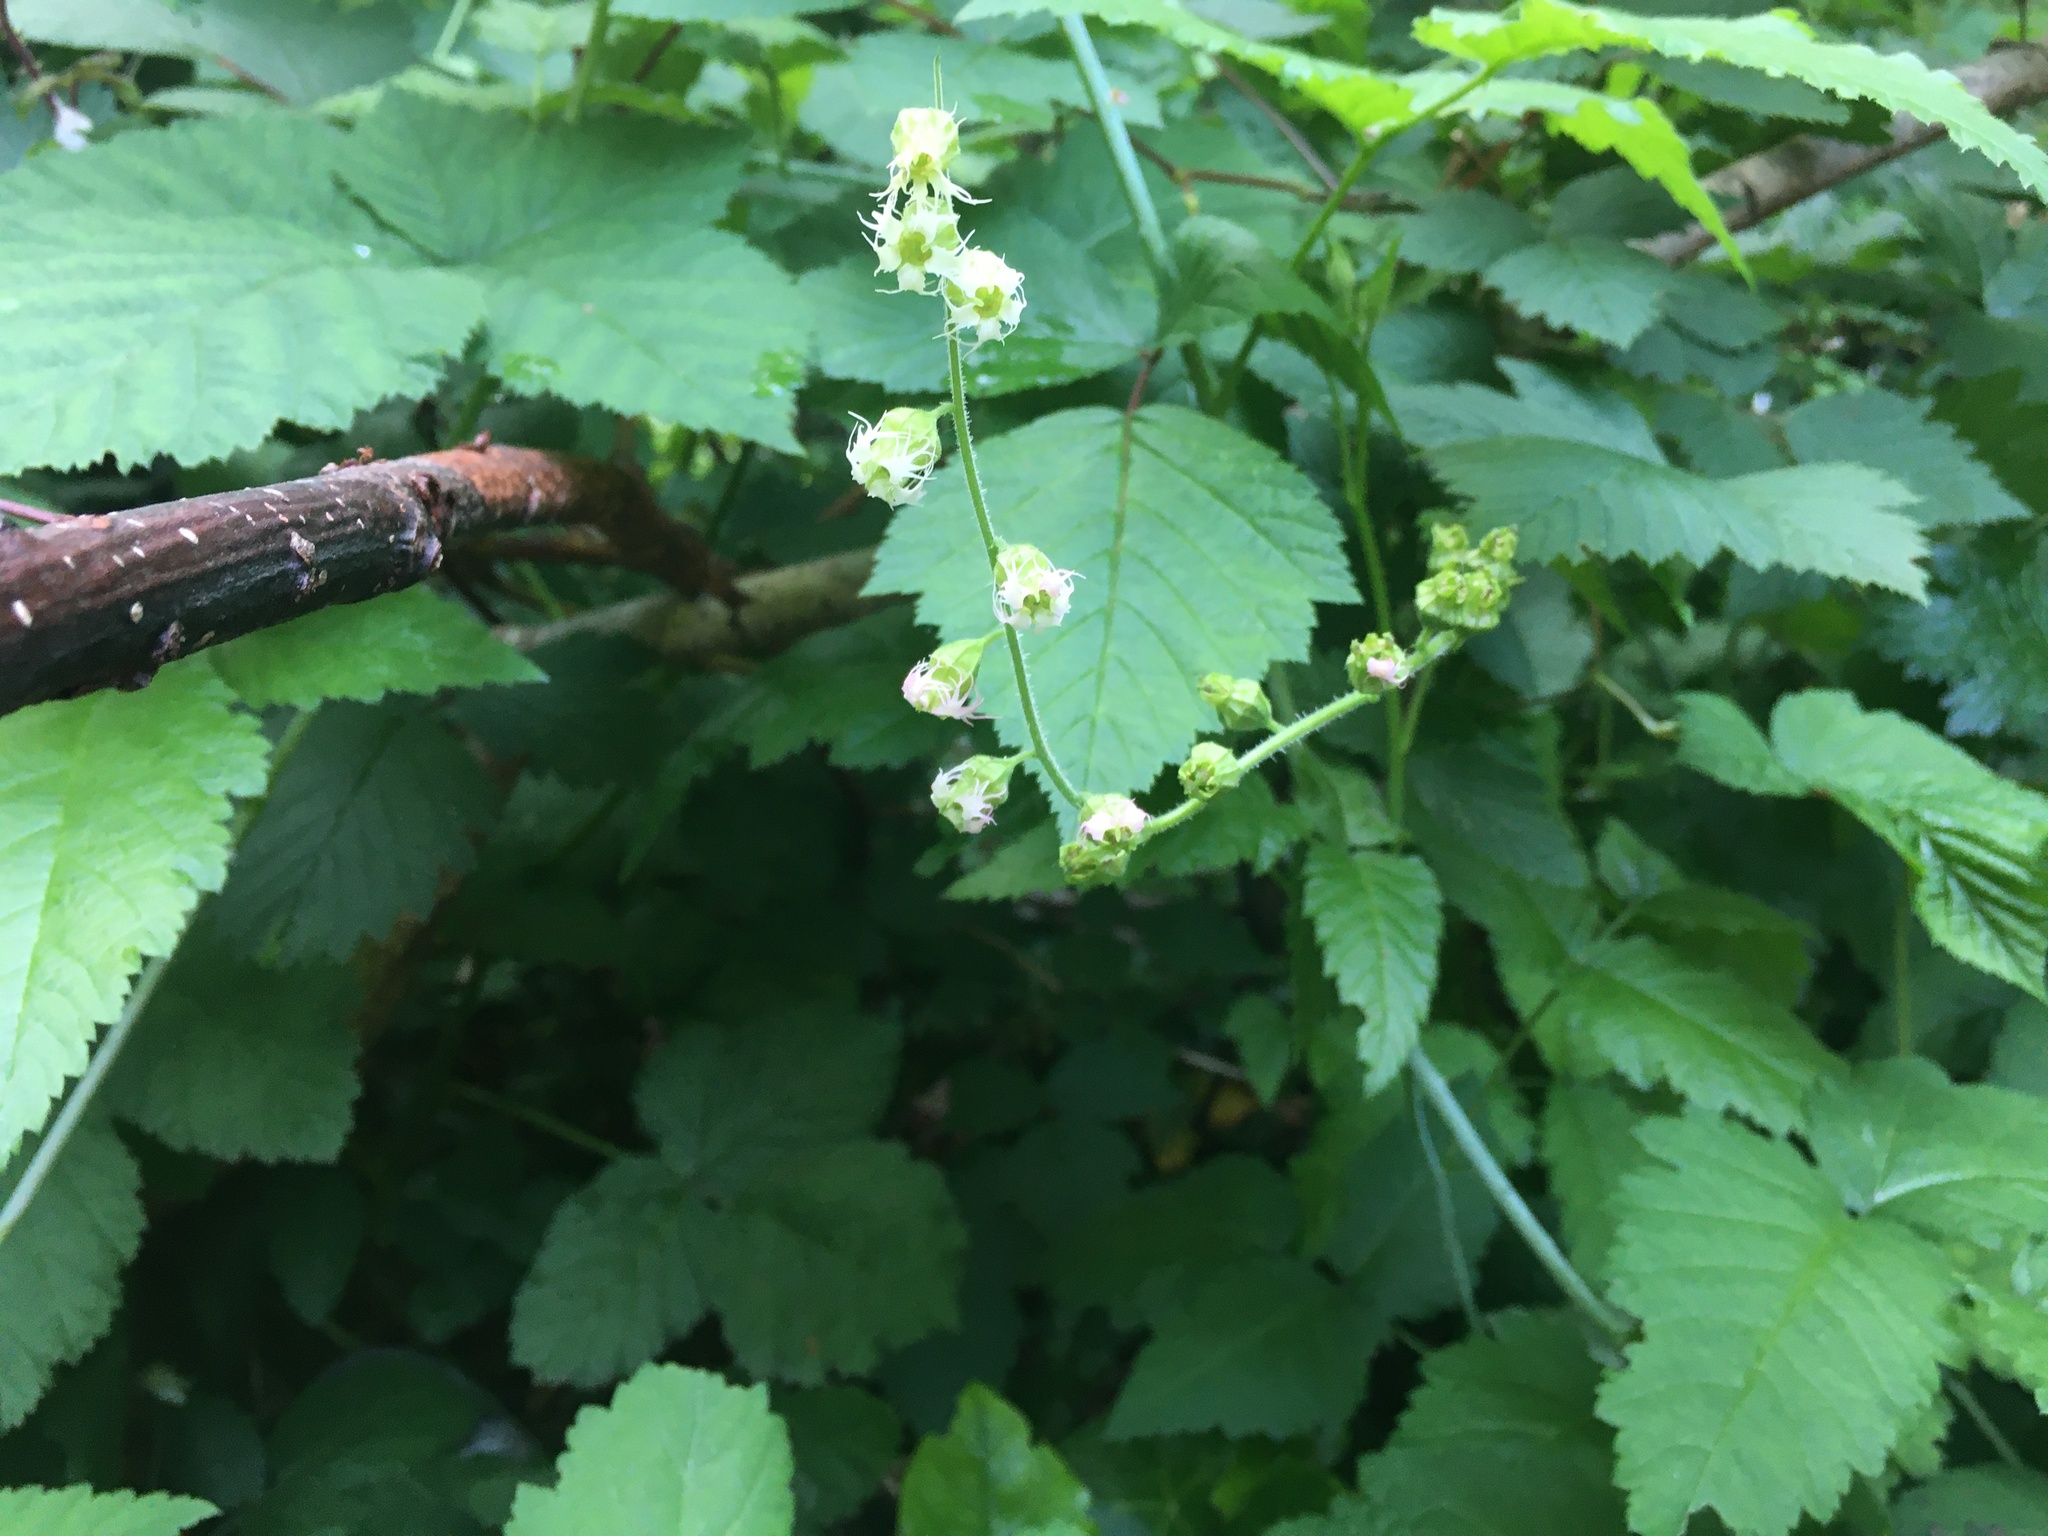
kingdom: Plantae
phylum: Tracheophyta
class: Magnoliopsida
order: Saxifragales
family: Saxifragaceae
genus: Tellima
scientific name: Tellima grandiflora
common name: Fringecups
